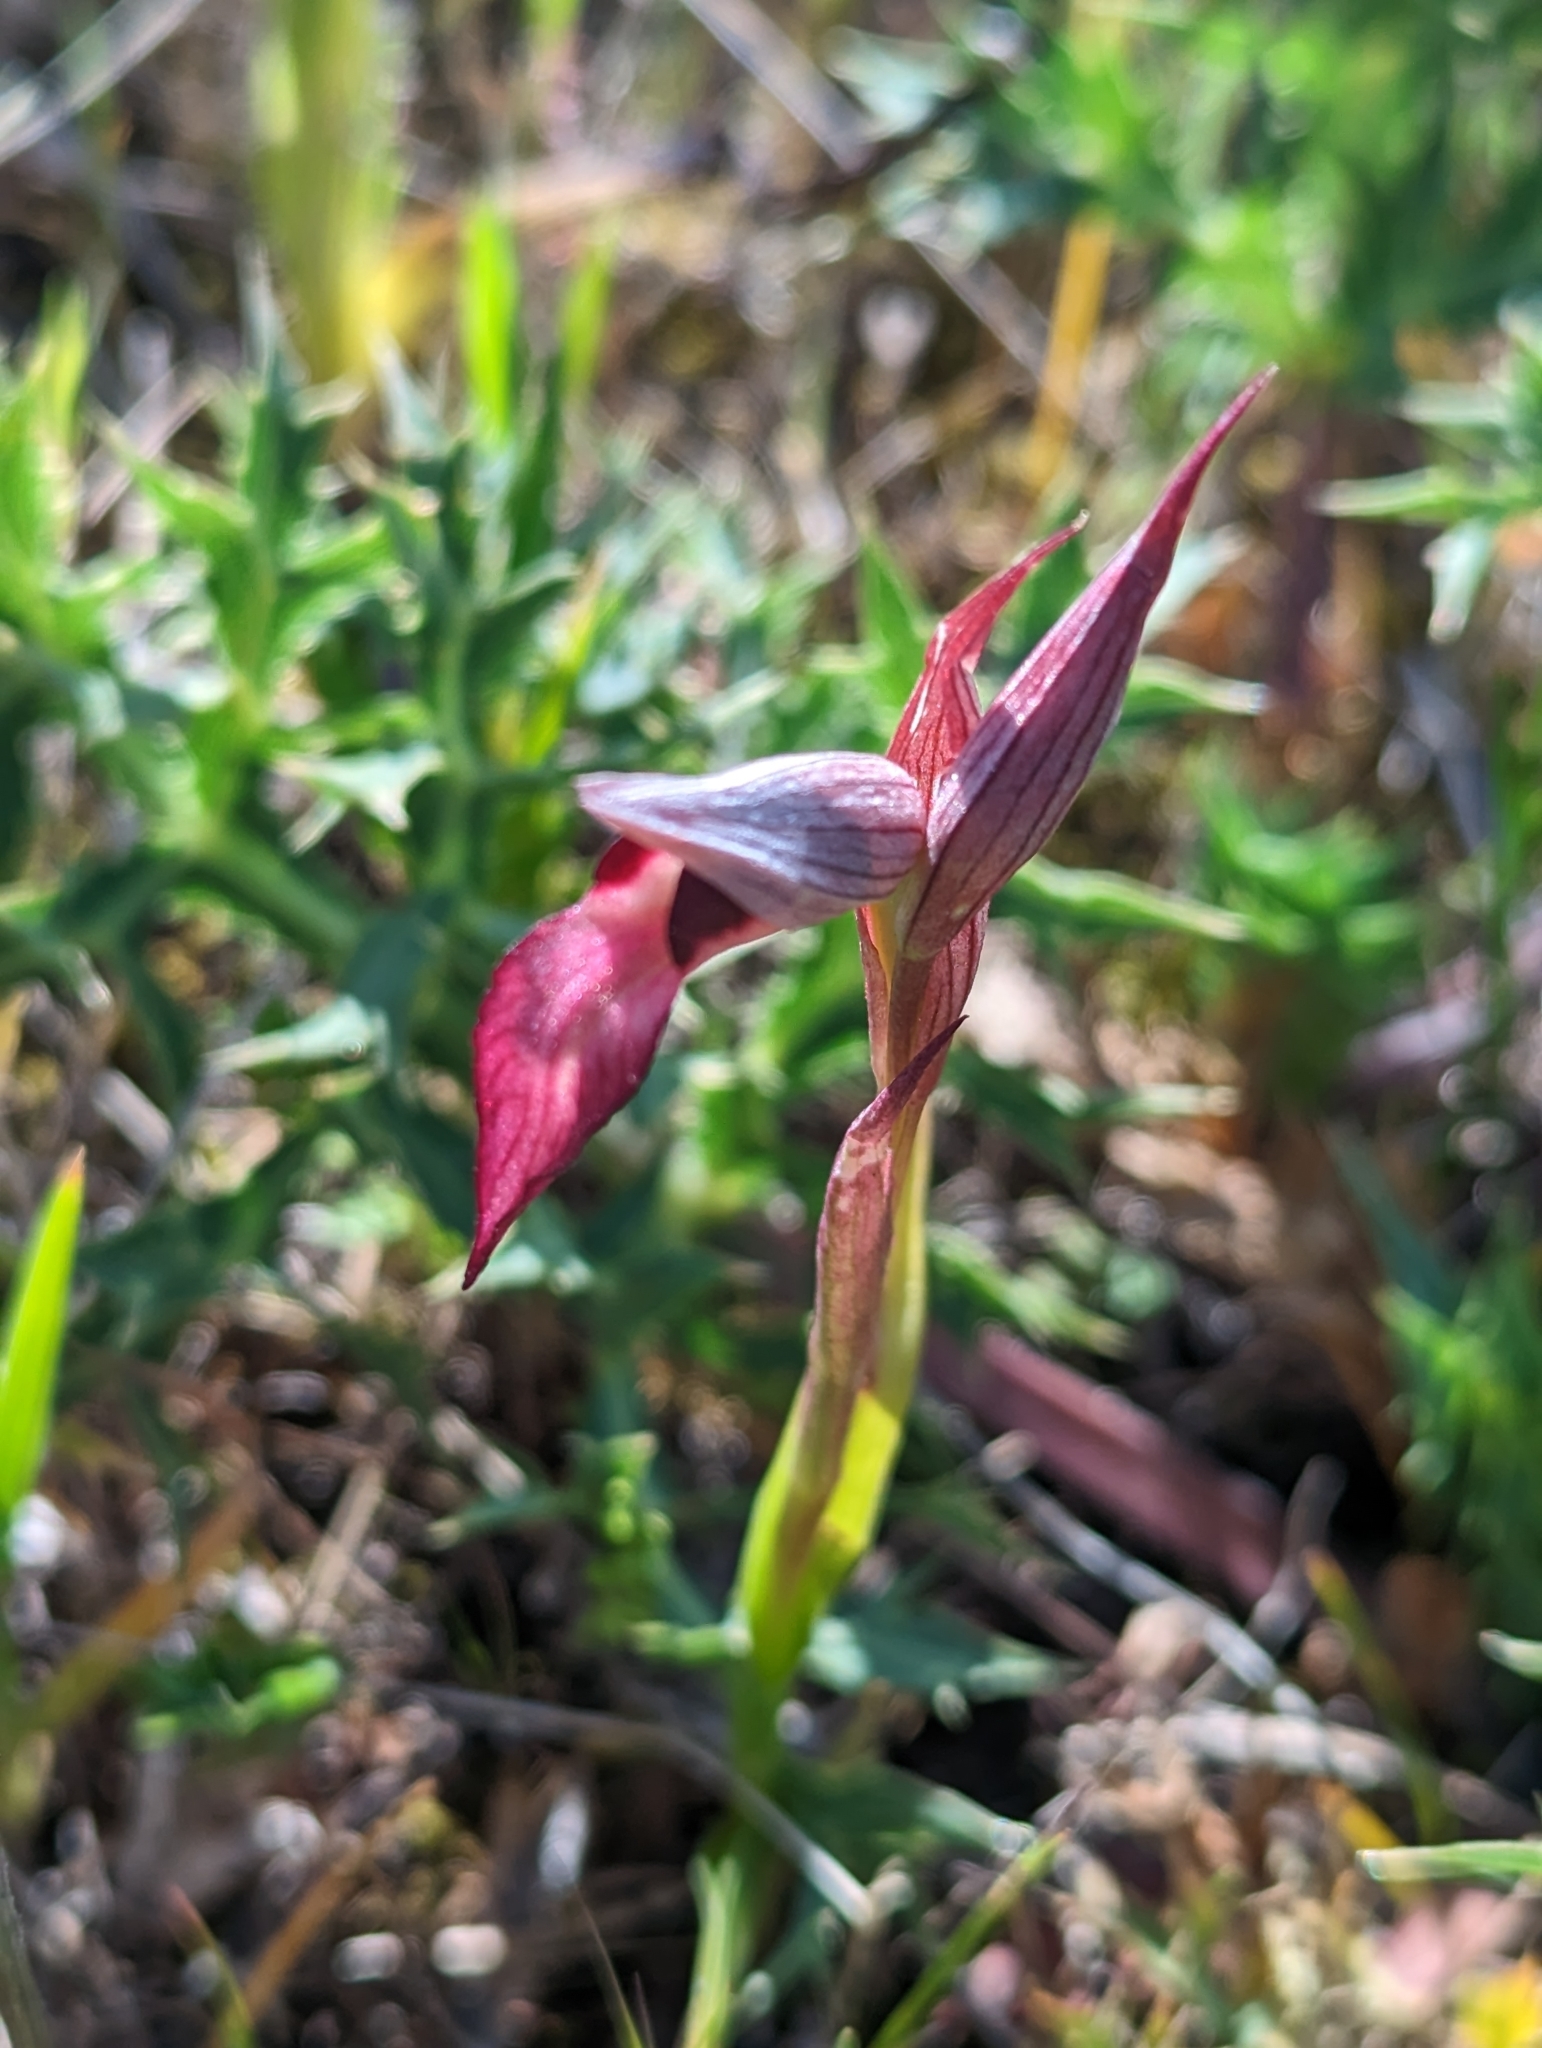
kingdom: Plantae
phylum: Tracheophyta
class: Liliopsida
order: Asparagales
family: Orchidaceae
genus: Serapias
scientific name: Serapias lingua
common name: Tongue-orchid
